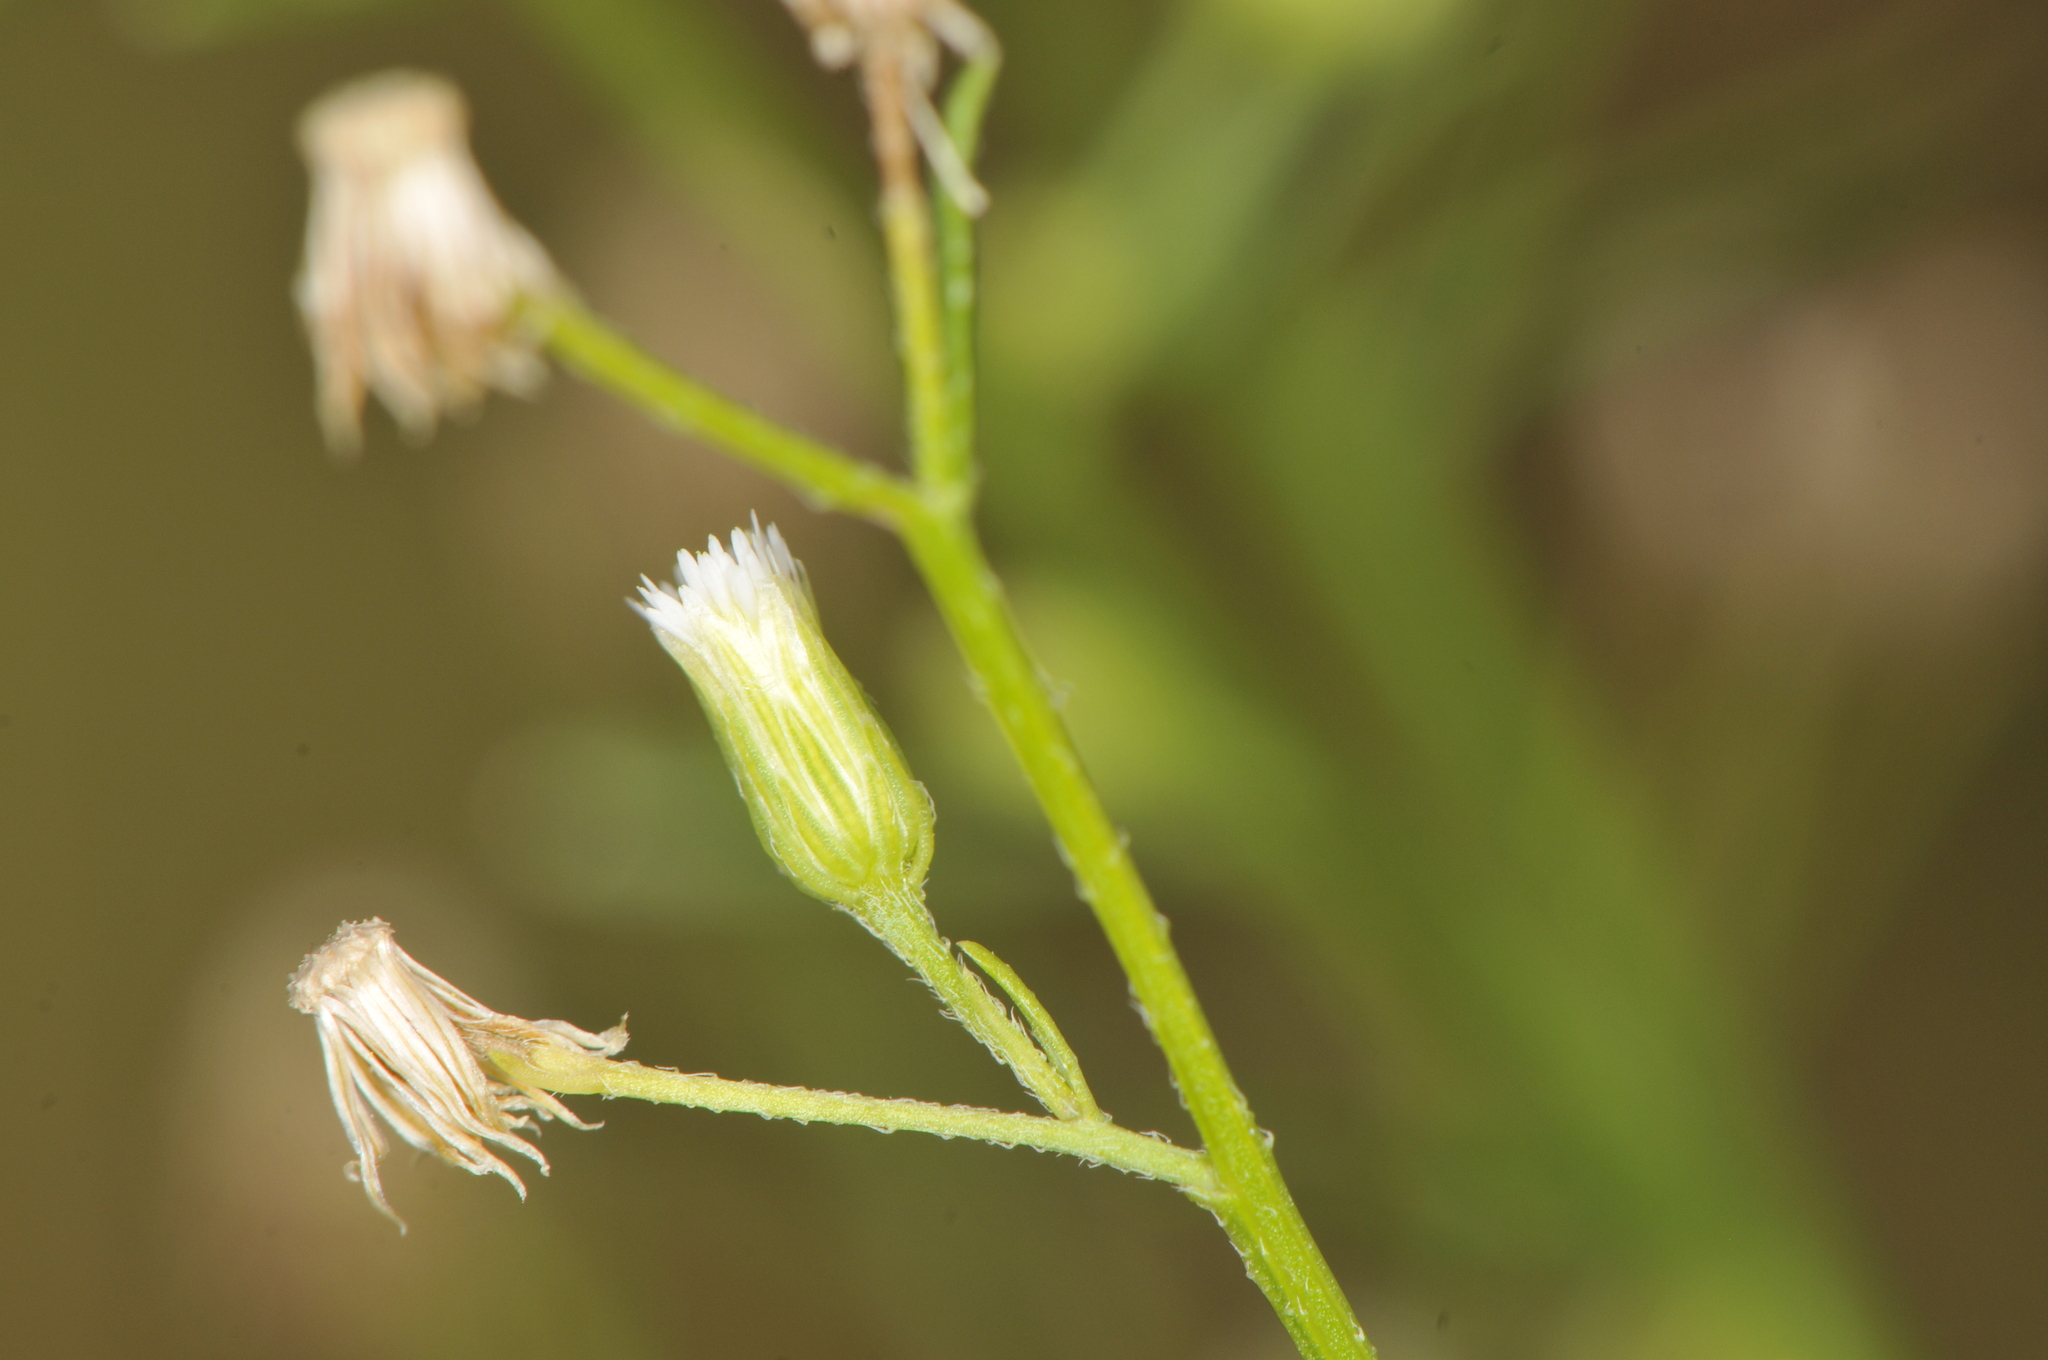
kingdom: Plantae
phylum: Tracheophyta
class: Magnoliopsida
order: Asterales
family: Asteraceae
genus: Erigeron
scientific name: Erigeron canadensis
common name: Canadian fleabane
